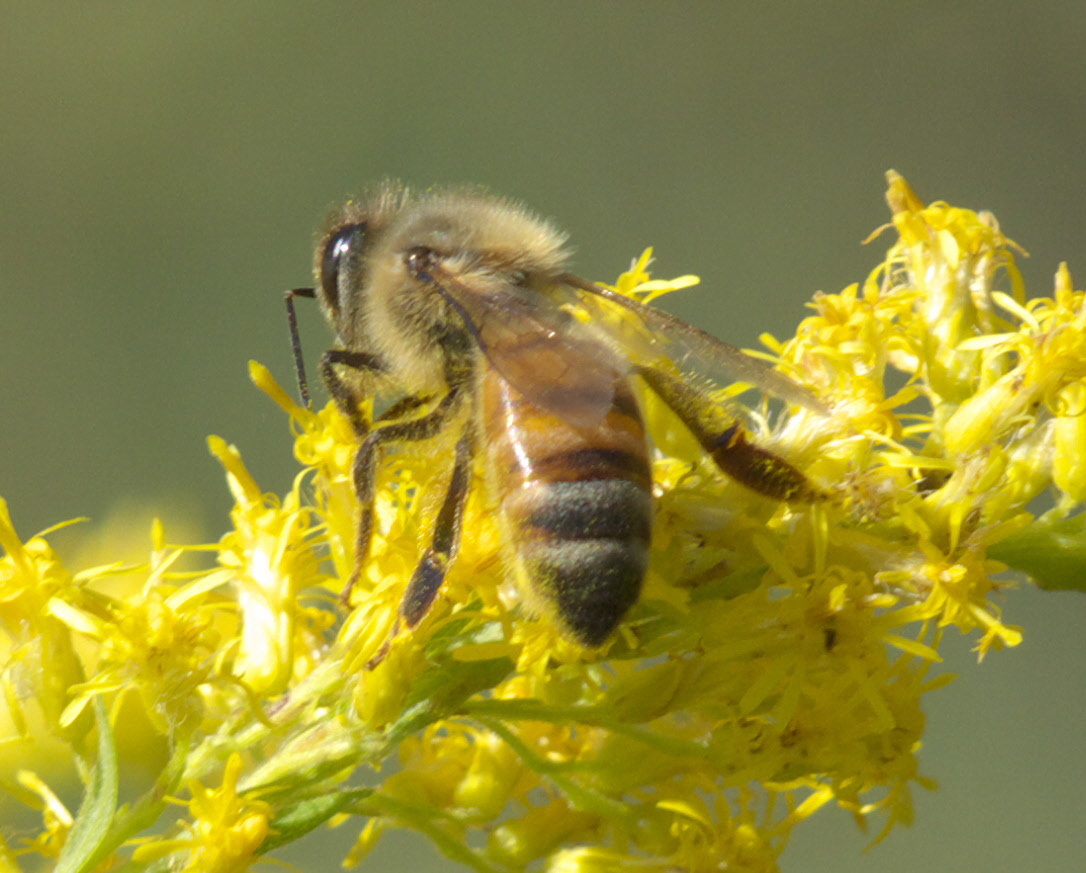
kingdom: Animalia
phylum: Arthropoda
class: Insecta
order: Hymenoptera
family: Apidae
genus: Apis
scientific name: Apis mellifera
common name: Honey bee
